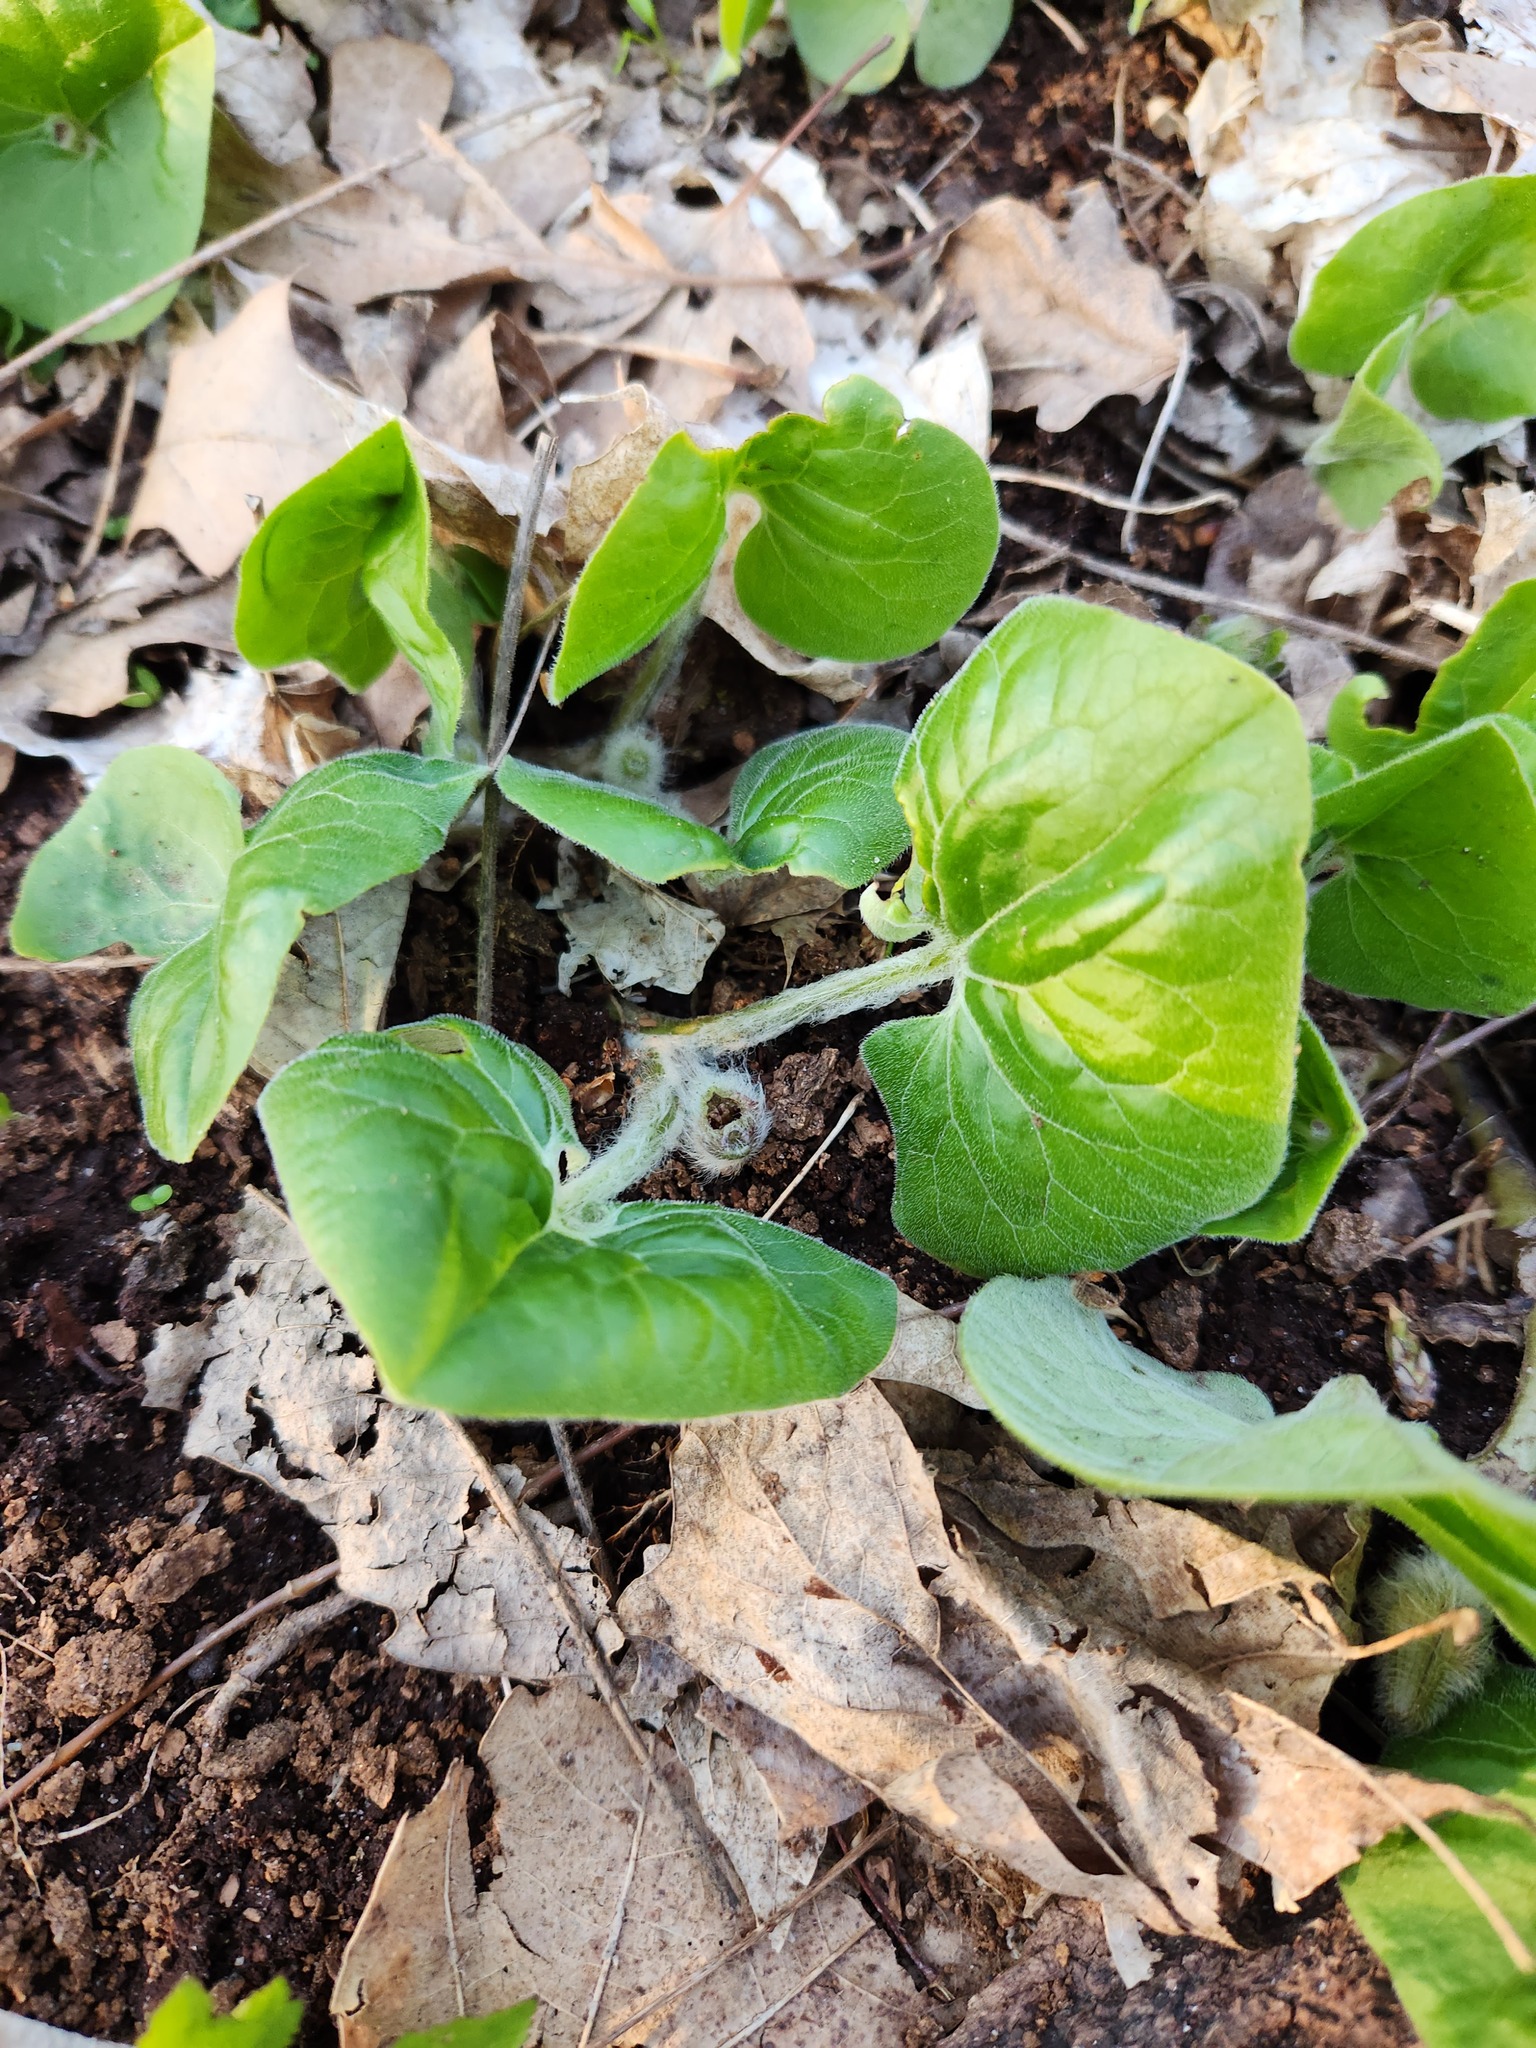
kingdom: Plantae
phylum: Tracheophyta
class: Magnoliopsida
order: Piperales
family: Aristolochiaceae
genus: Asarum
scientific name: Asarum canadense
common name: Wild ginger
